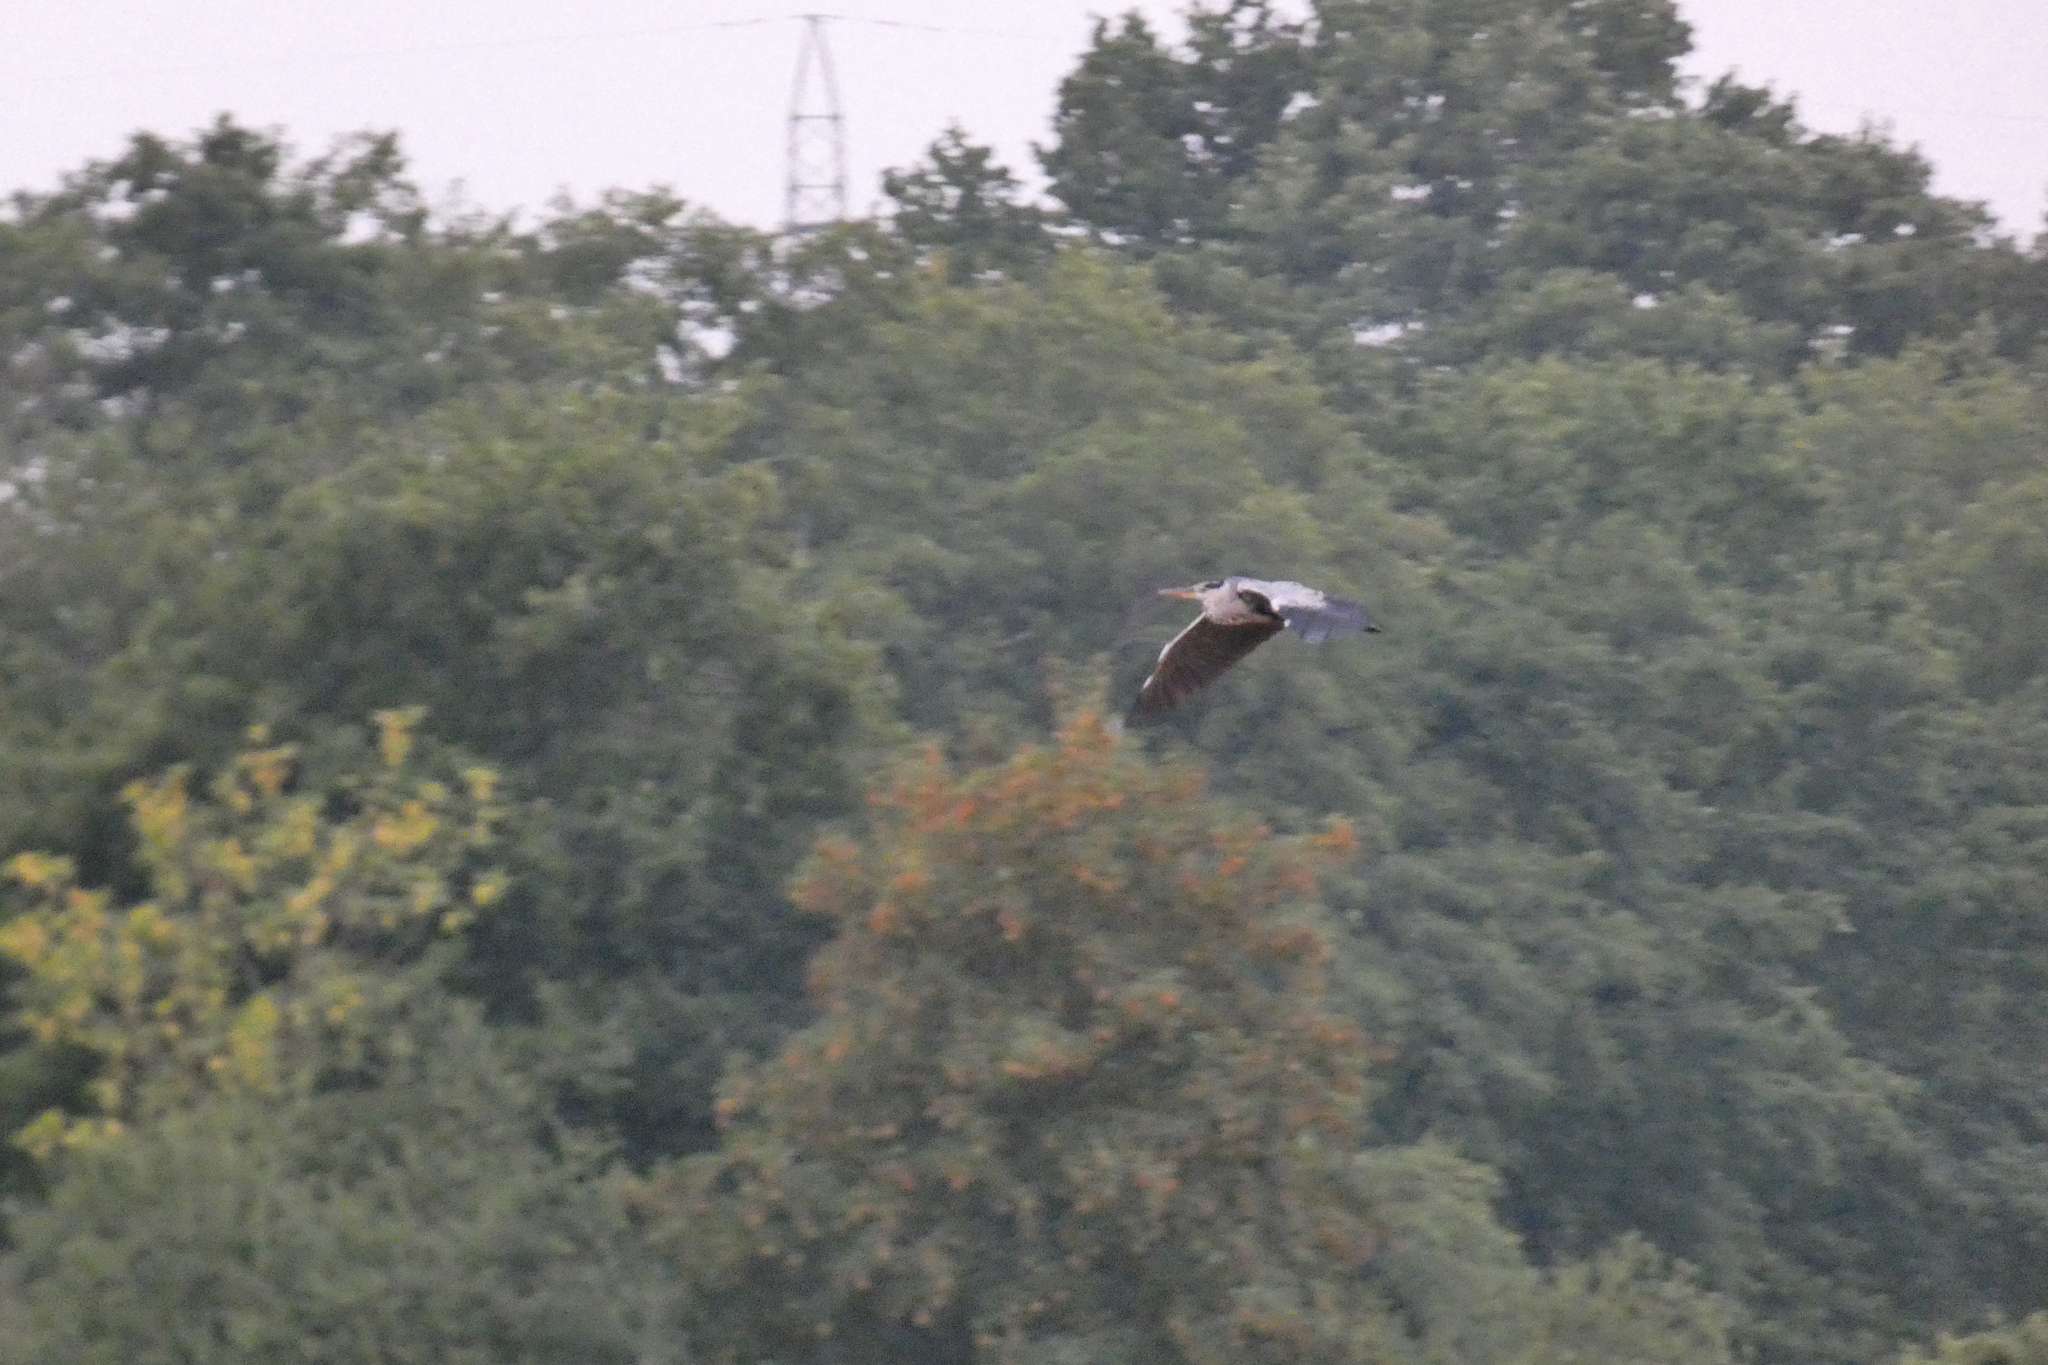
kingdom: Animalia
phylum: Chordata
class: Aves
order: Pelecaniformes
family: Ardeidae
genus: Ardea
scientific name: Ardea cinerea
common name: Grey heron
